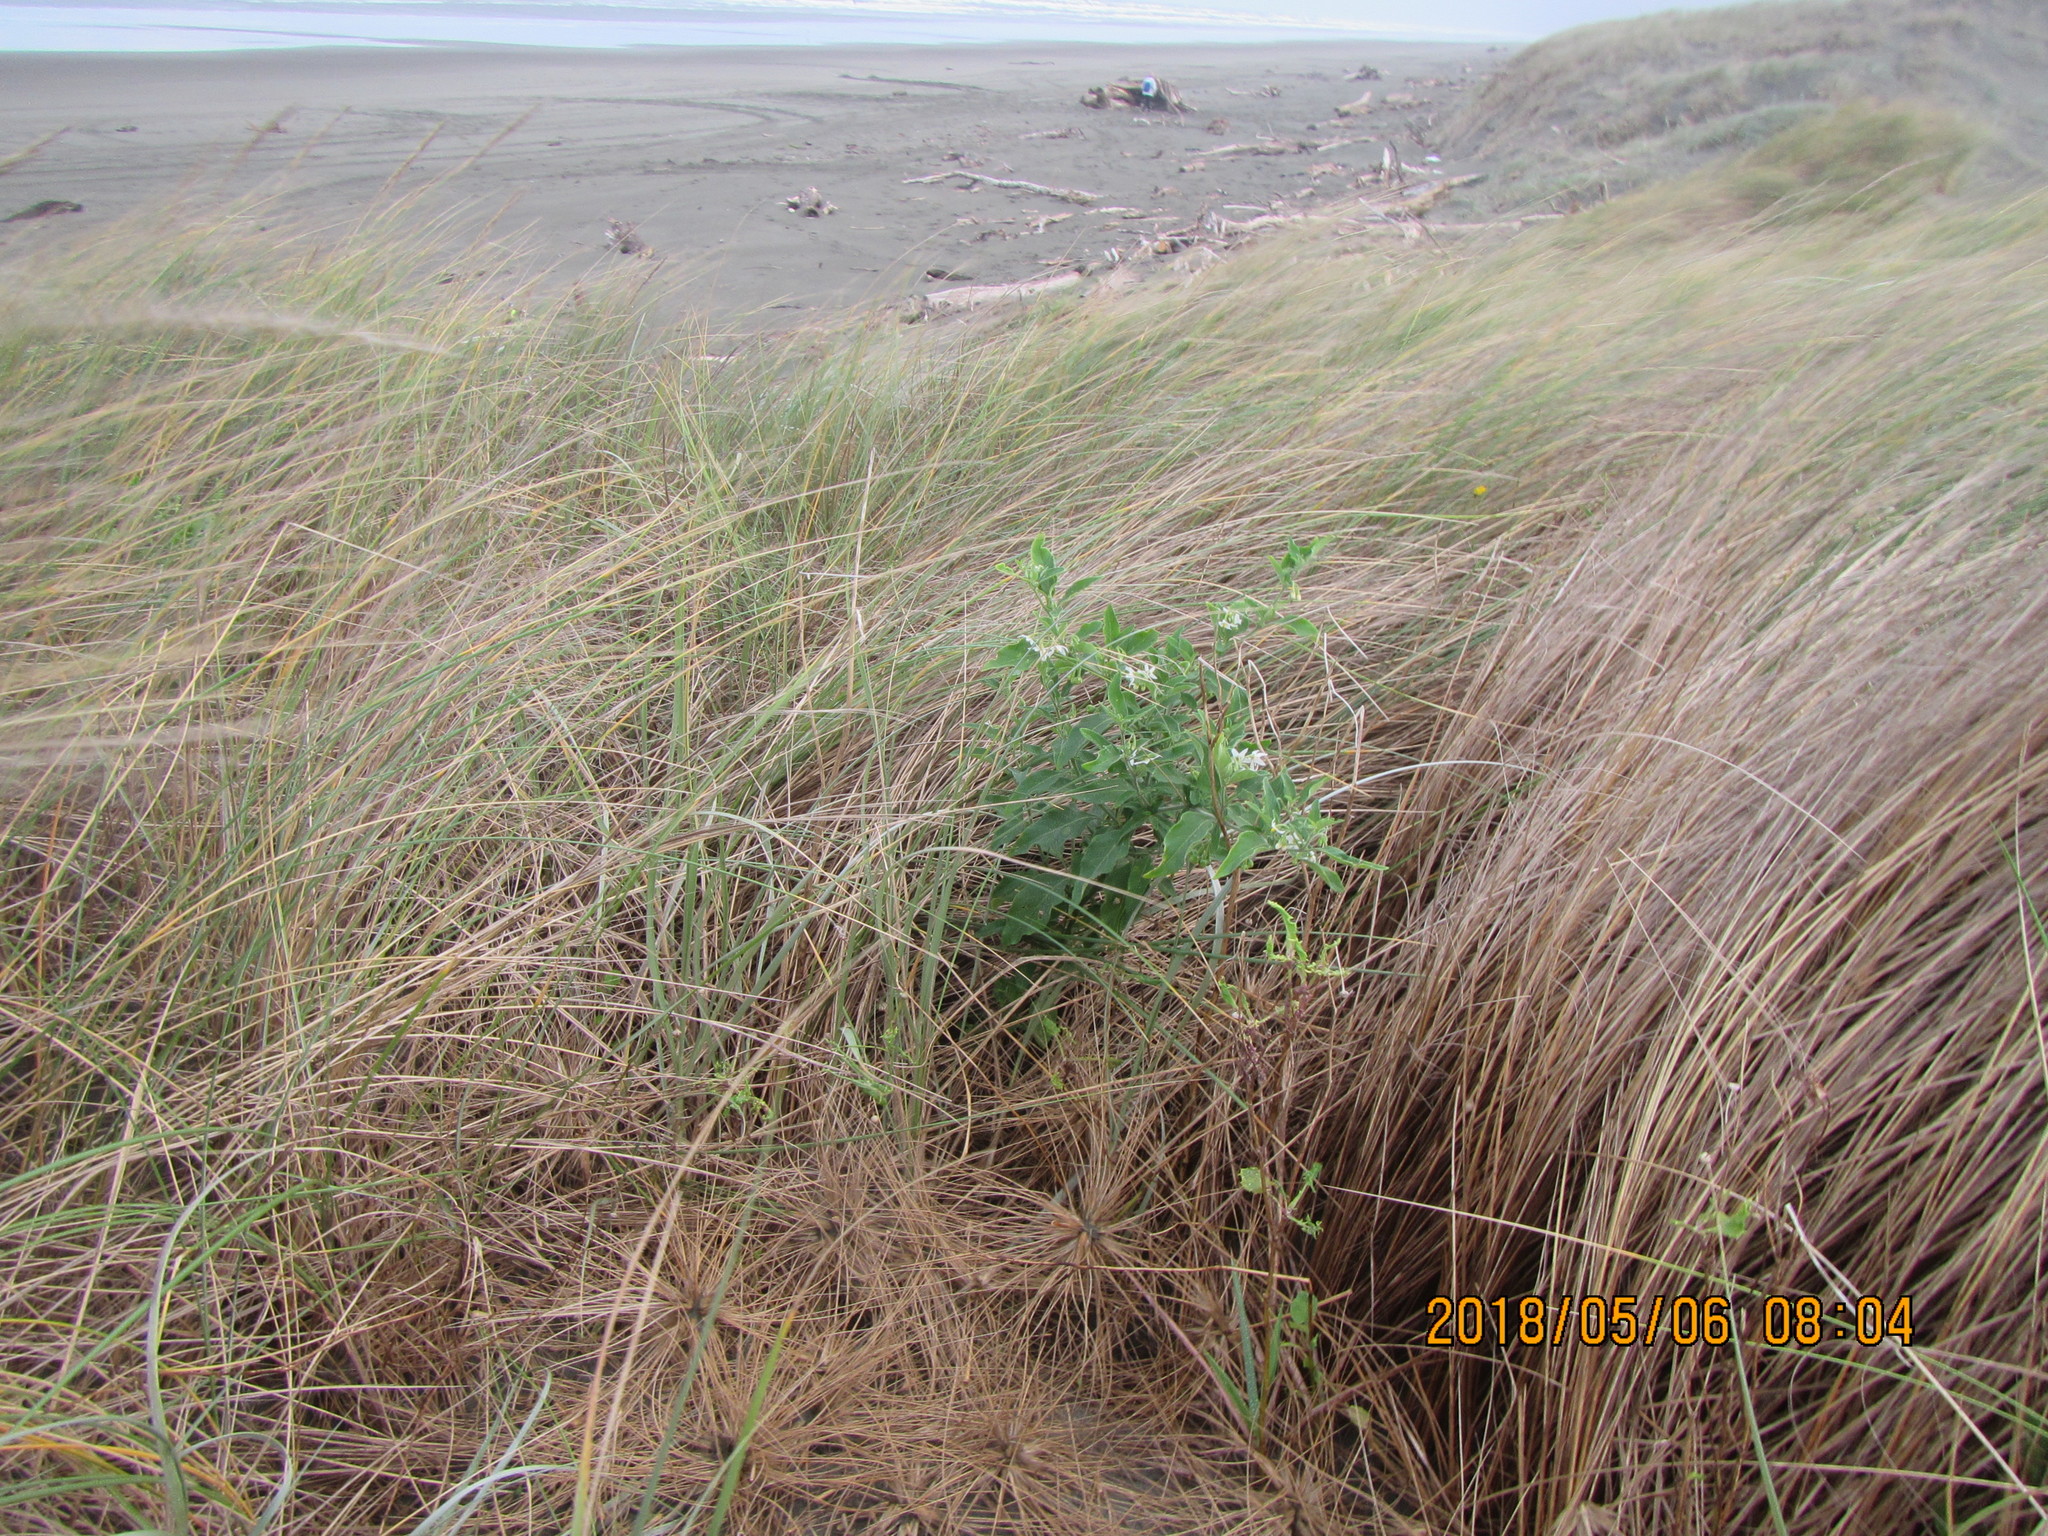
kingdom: Plantae
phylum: Tracheophyta
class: Magnoliopsida
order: Solanales
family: Solanaceae
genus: Solanum
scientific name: Solanum chenopodioides
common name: Tall nightshade
